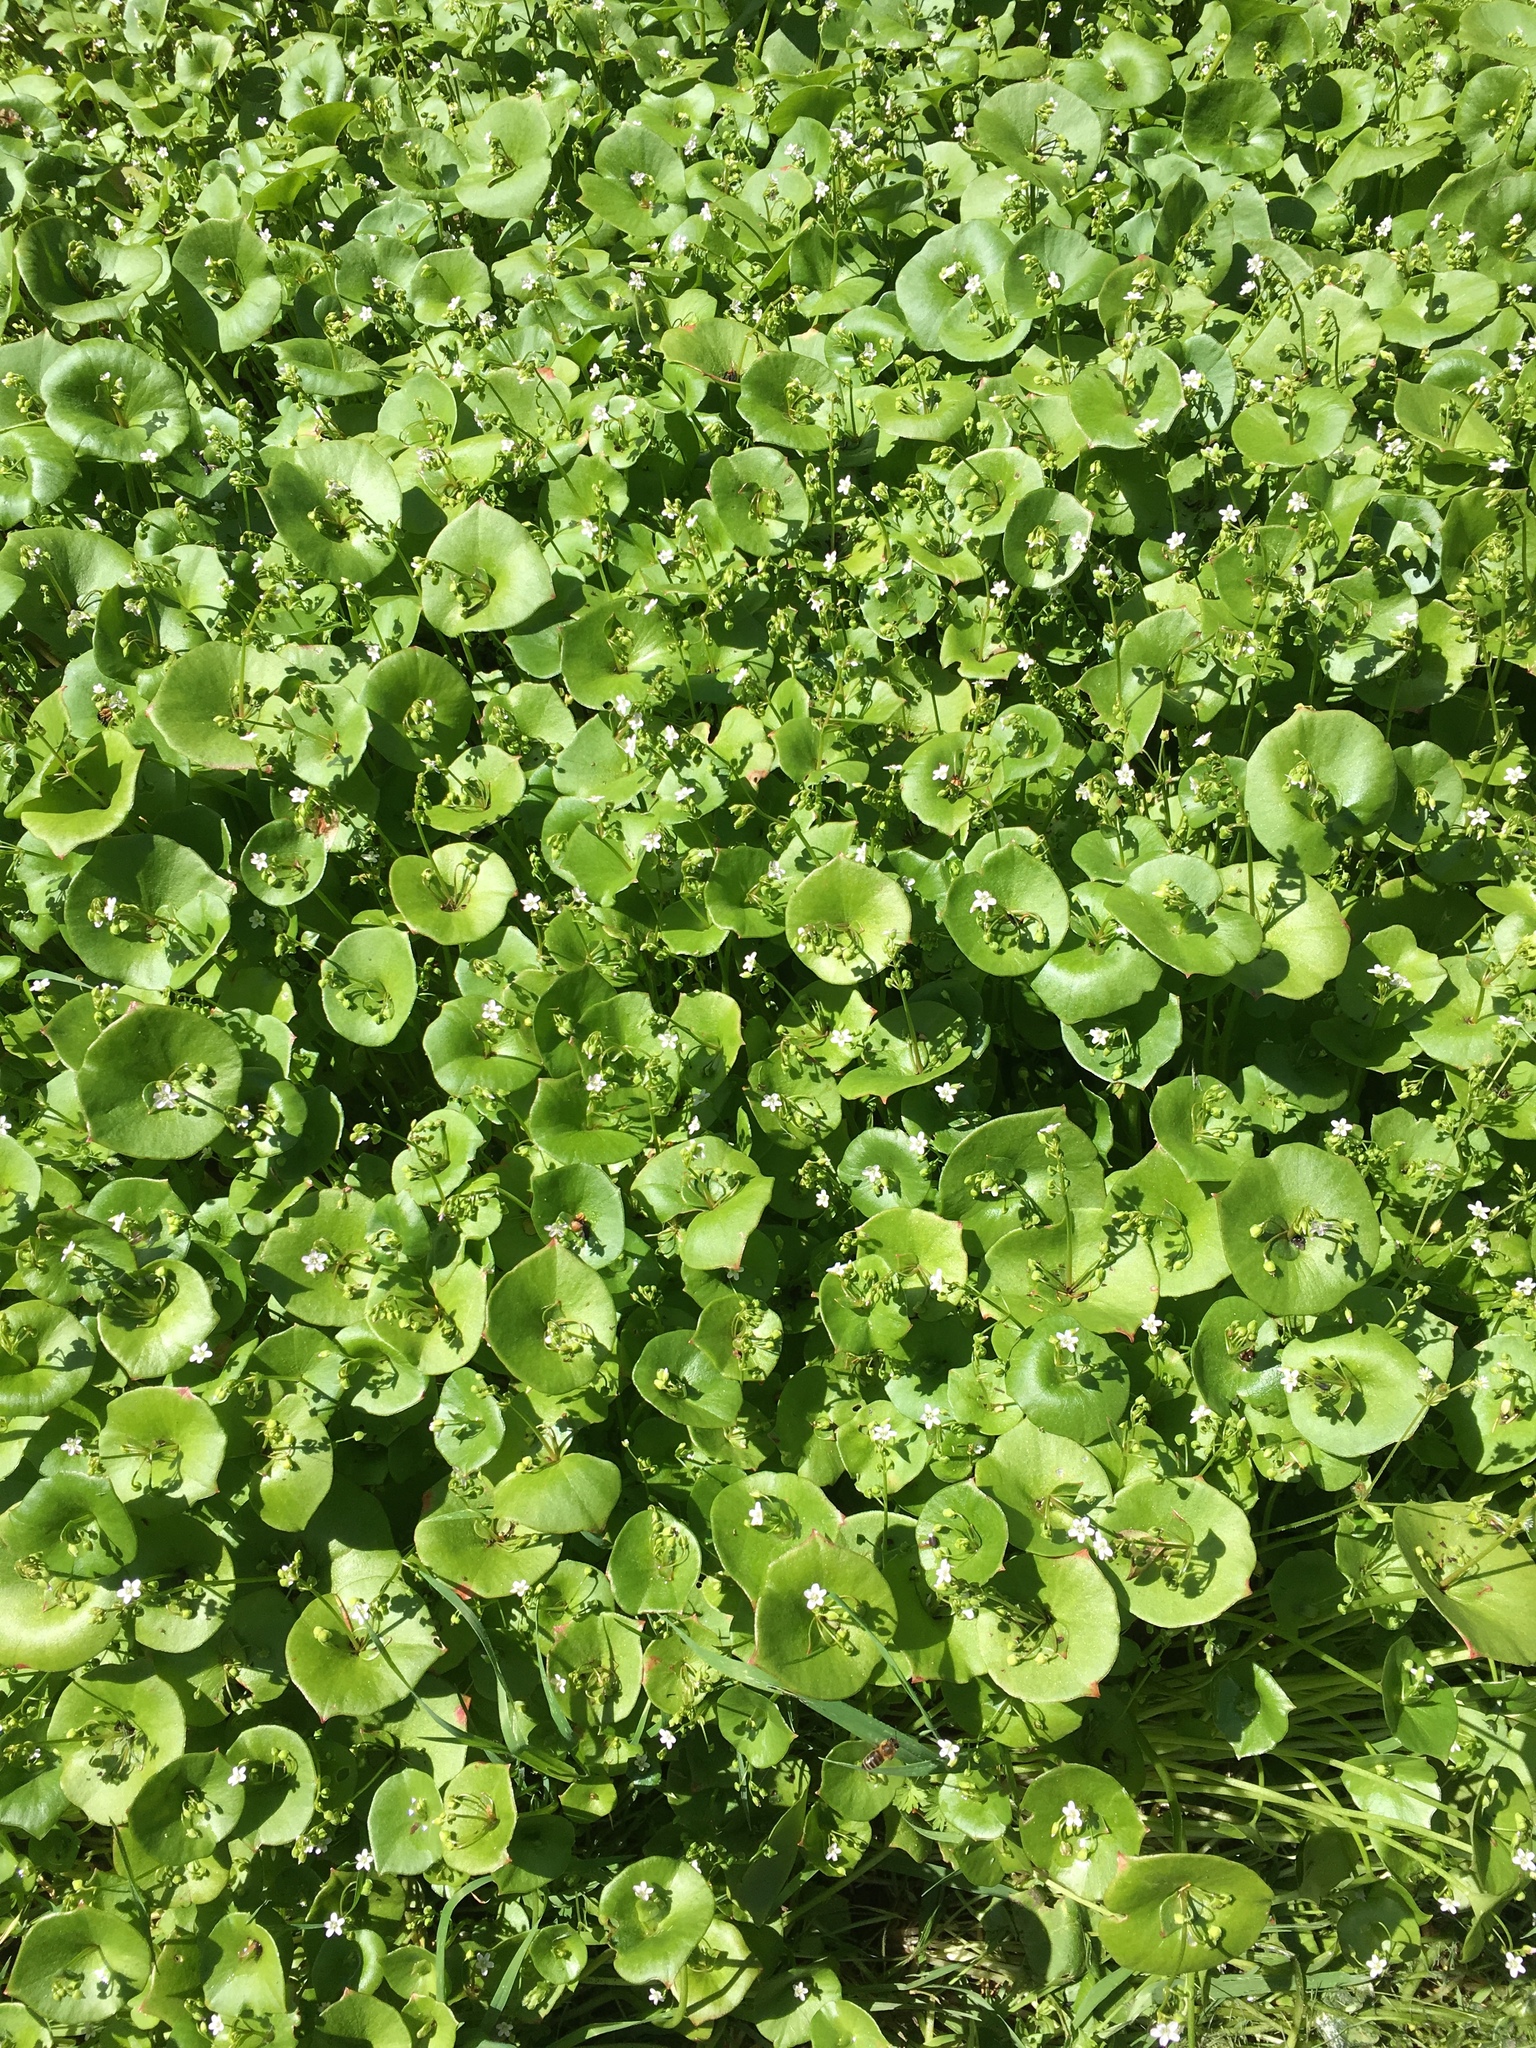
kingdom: Plantae
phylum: Tracheophyta
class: Magnoliopsida
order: Caryophyllales
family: Montiaceae
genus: Claytonia
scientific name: Claytonia perfoliata
